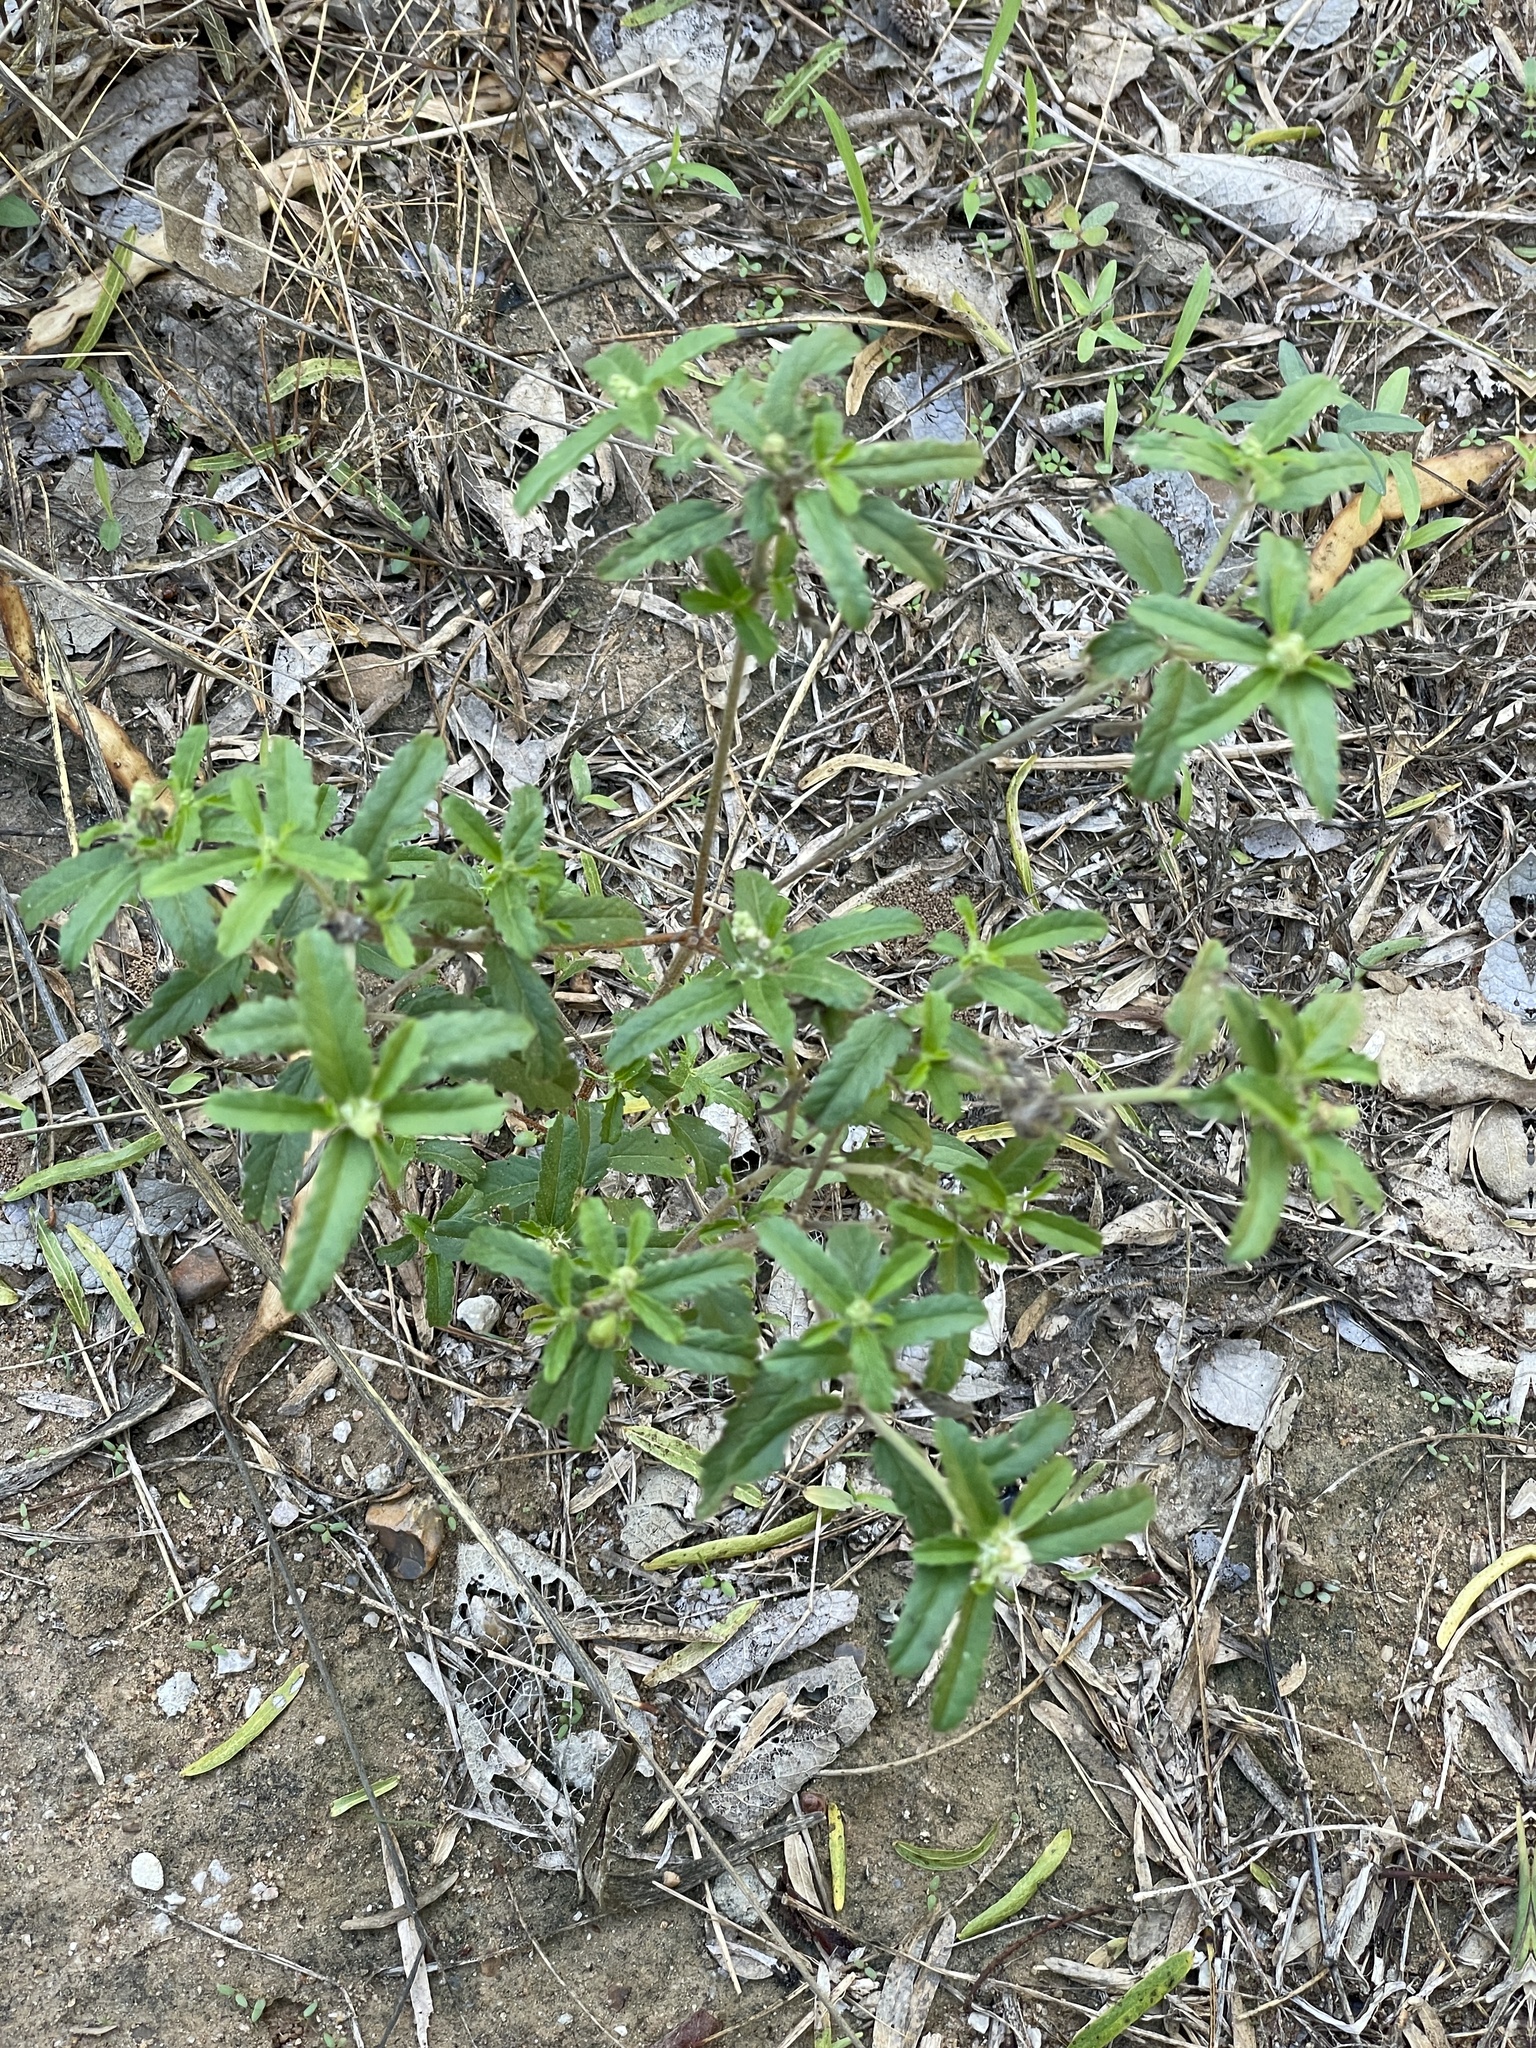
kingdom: Plantae
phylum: Tracheophyta
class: Magnoliopsida
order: Malpighiales
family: Euphorbiaceae
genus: Croton
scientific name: Croton glandulosus
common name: Tropic croton
